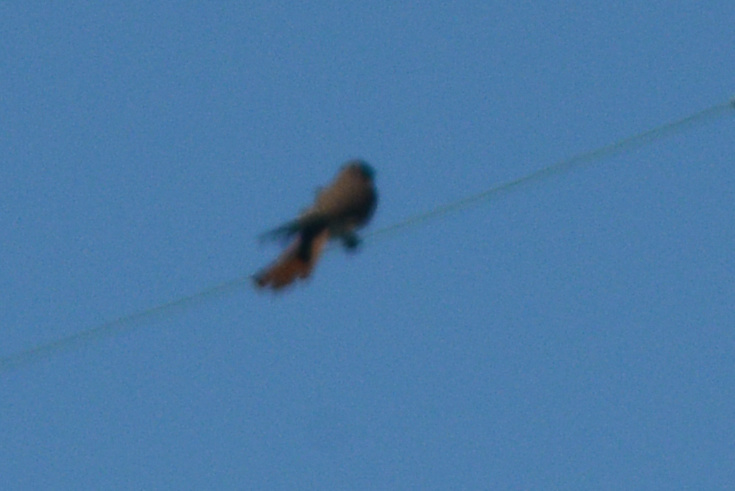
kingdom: Animalia
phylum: Chordata
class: Aves
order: Falconiformes
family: Falconidae
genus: Falco
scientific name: Falco sparverius
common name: American kestrel
